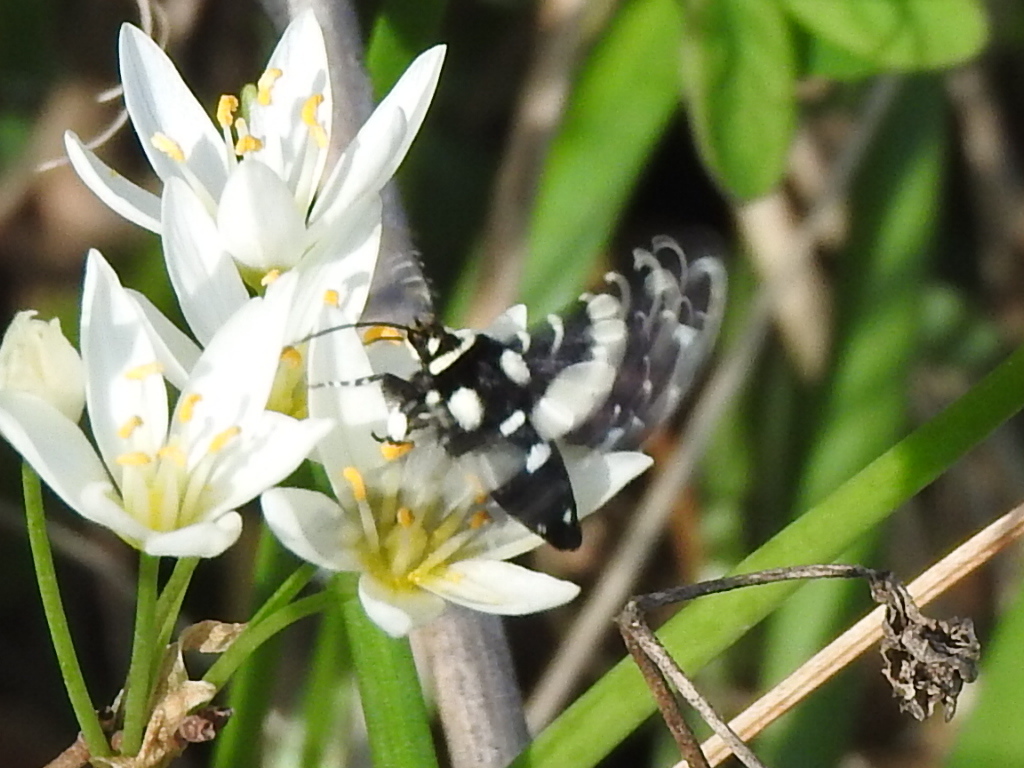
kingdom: Animalia
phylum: Arthropoda
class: Insecta
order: Lepidoptera
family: Thyrididae
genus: Pseudothyris
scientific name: Pseudothyris sepulchralis
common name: Mournful thyris moth
